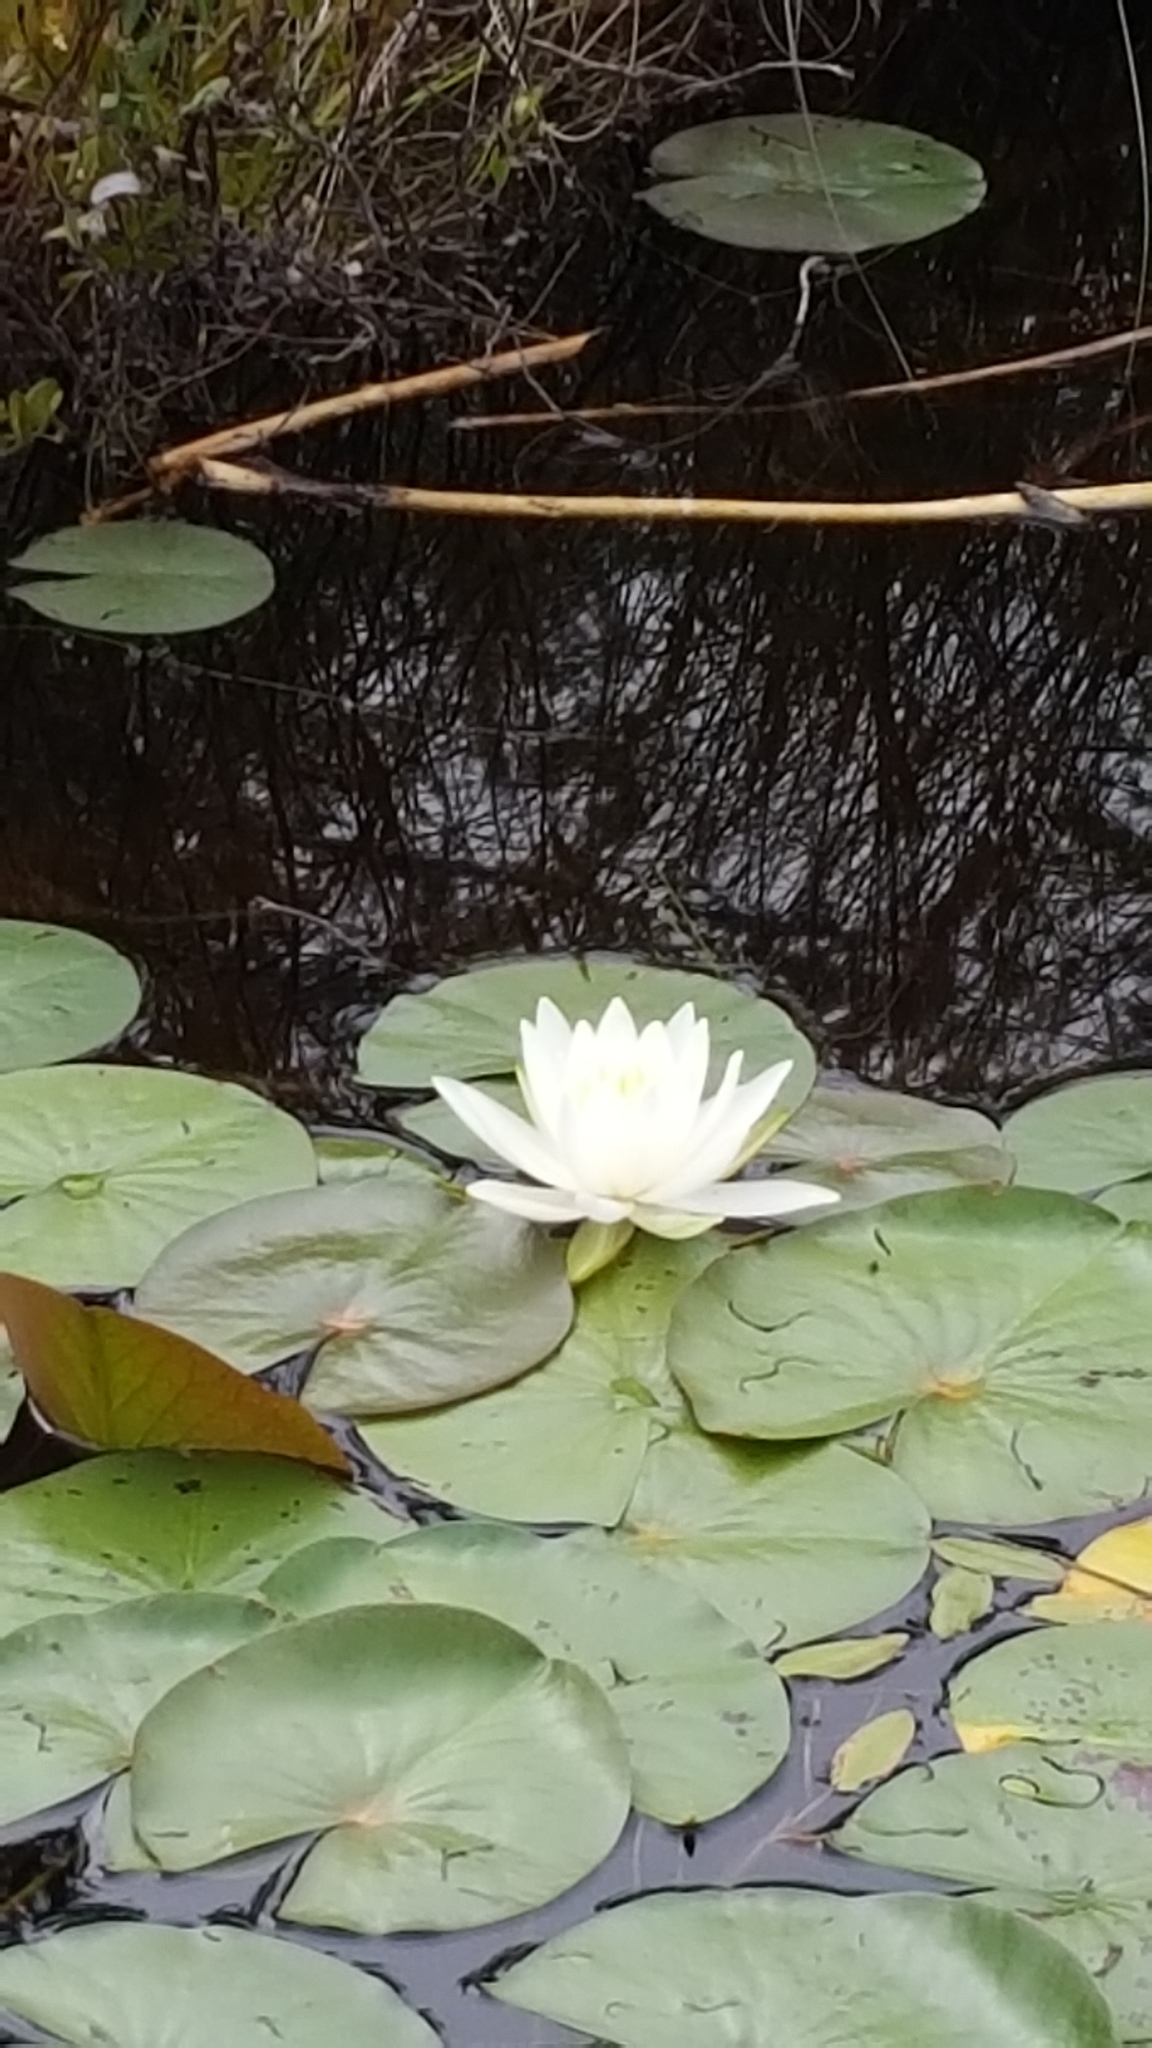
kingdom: Plantae
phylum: Tracheophyta
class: Magnoliopsida
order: Nymphaeales
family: Nymphaeaceae
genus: Nymphaea
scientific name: Nymphaea odorata
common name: Fragrant water-lily
